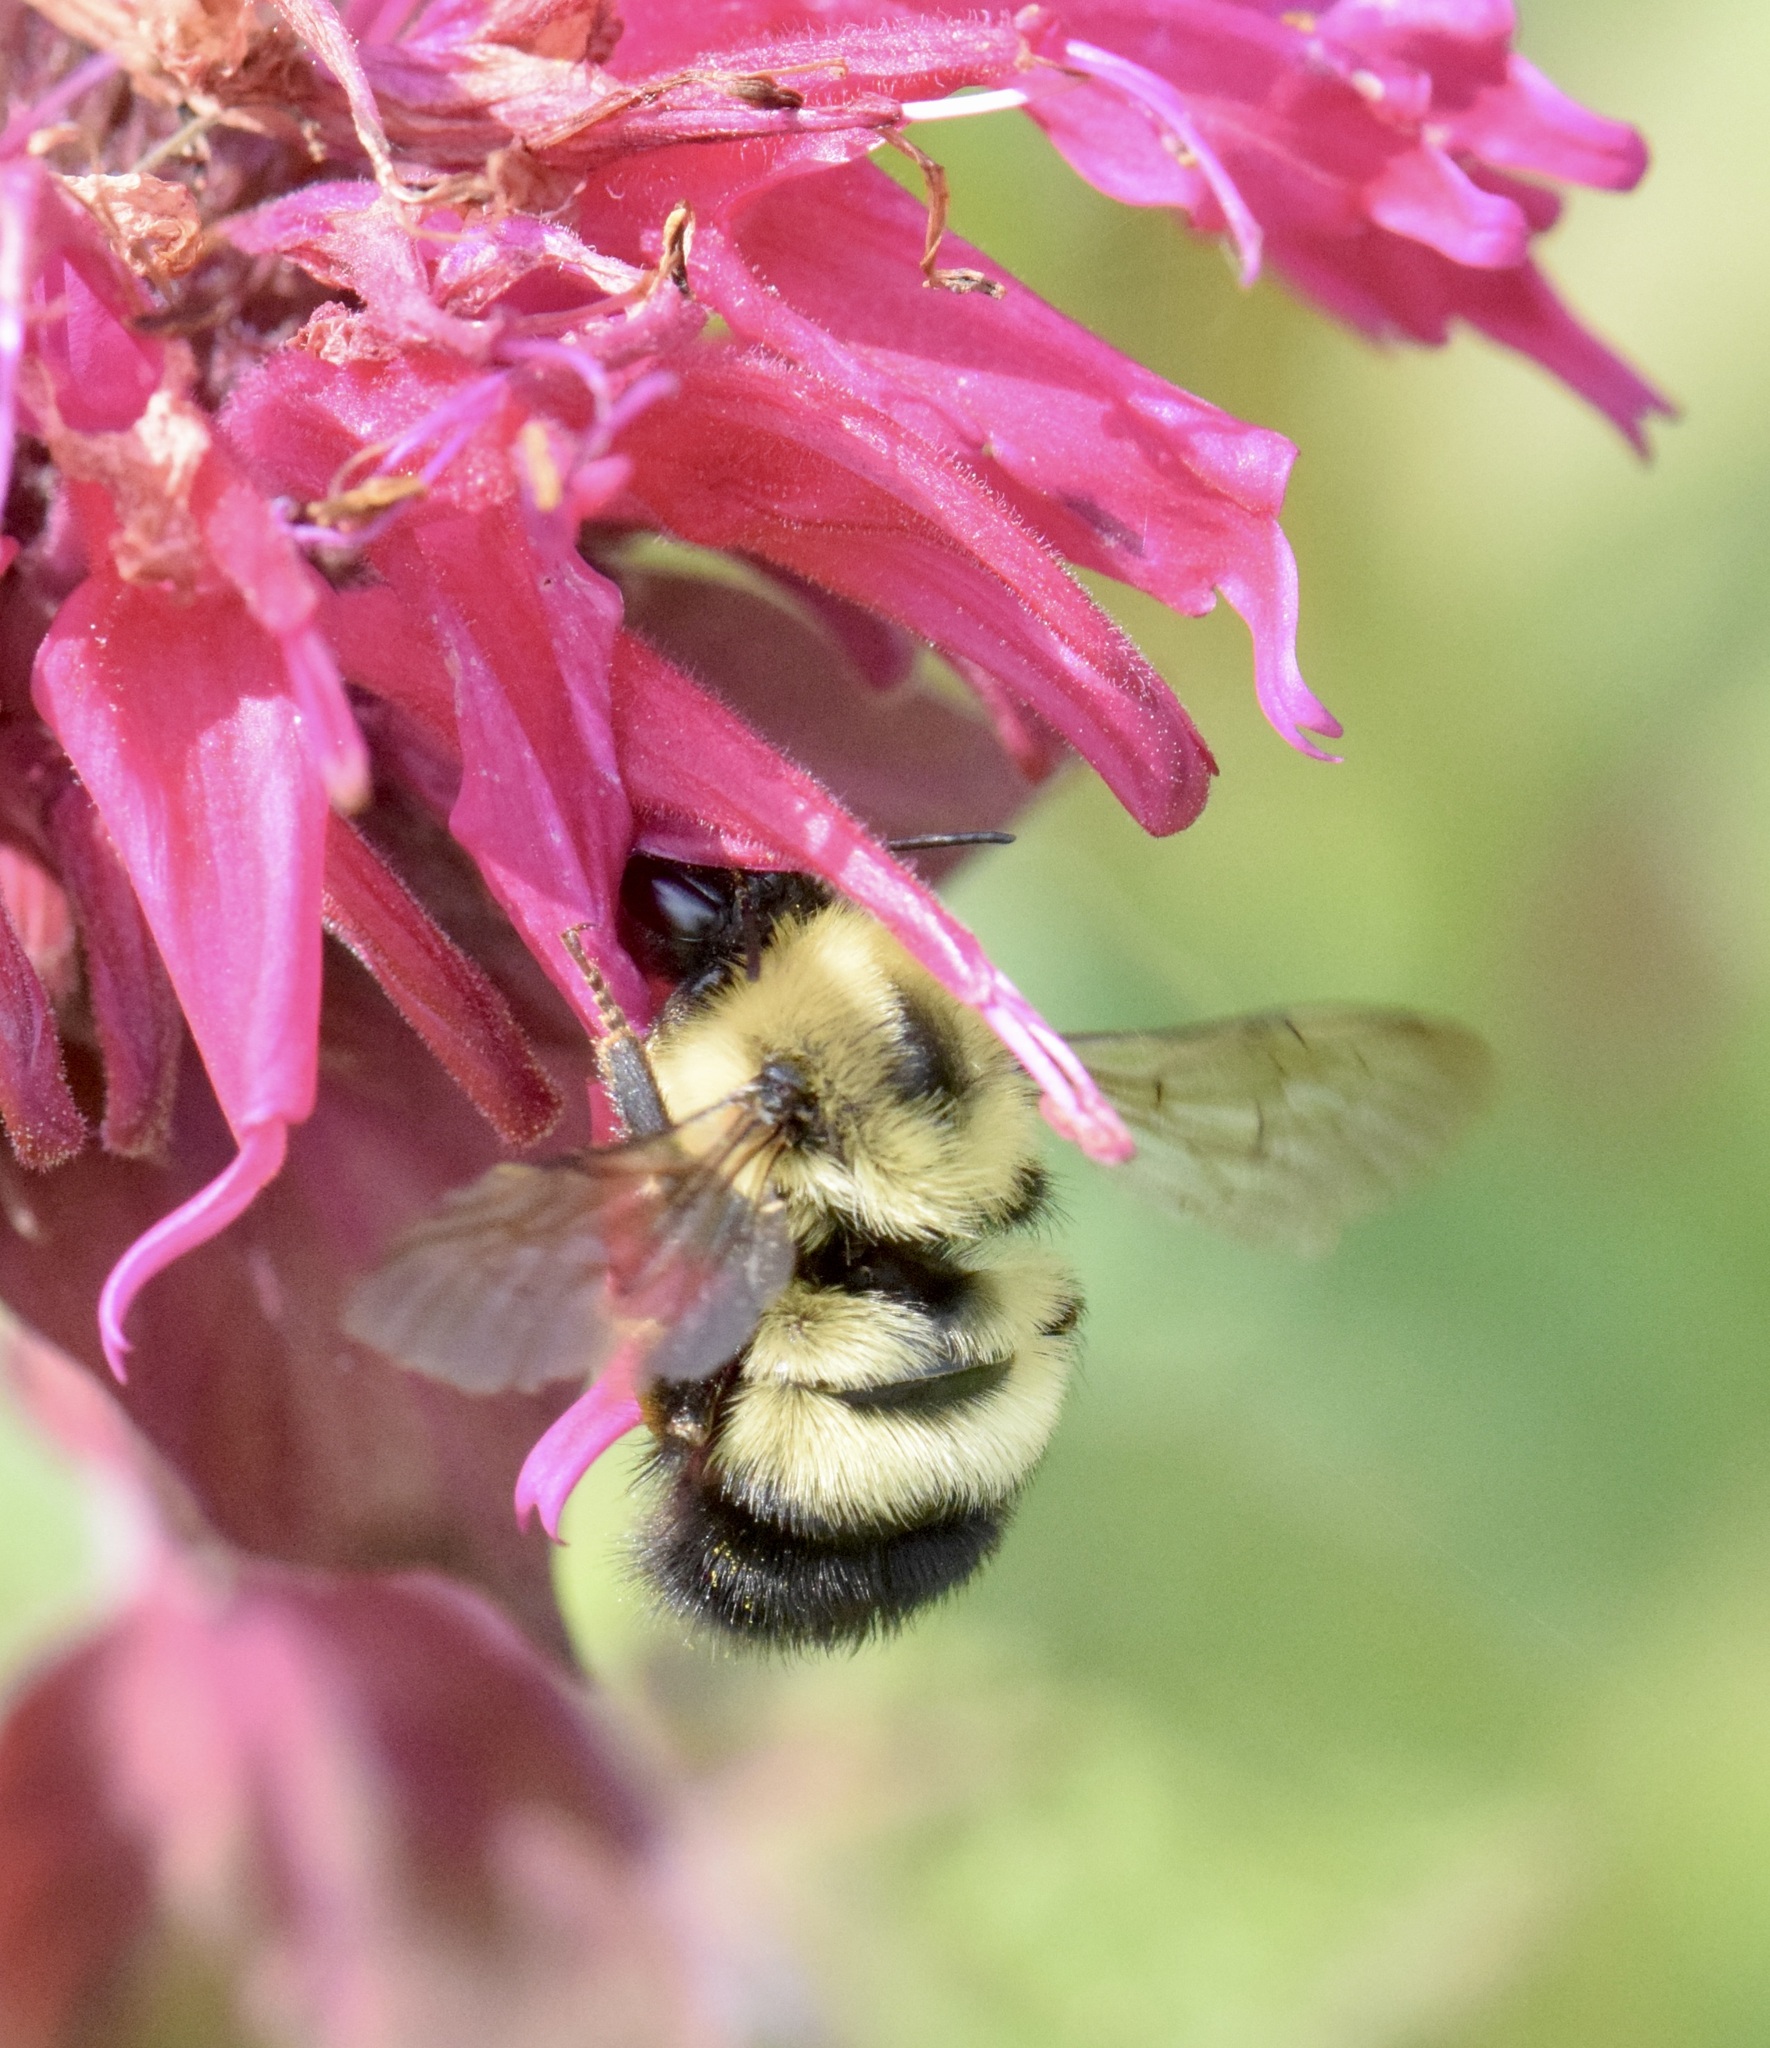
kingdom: Animalia
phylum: Arthropoda
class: Insecta
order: Hymenoptera
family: Apidae
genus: Pyrobombus
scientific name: Pyrobombus
